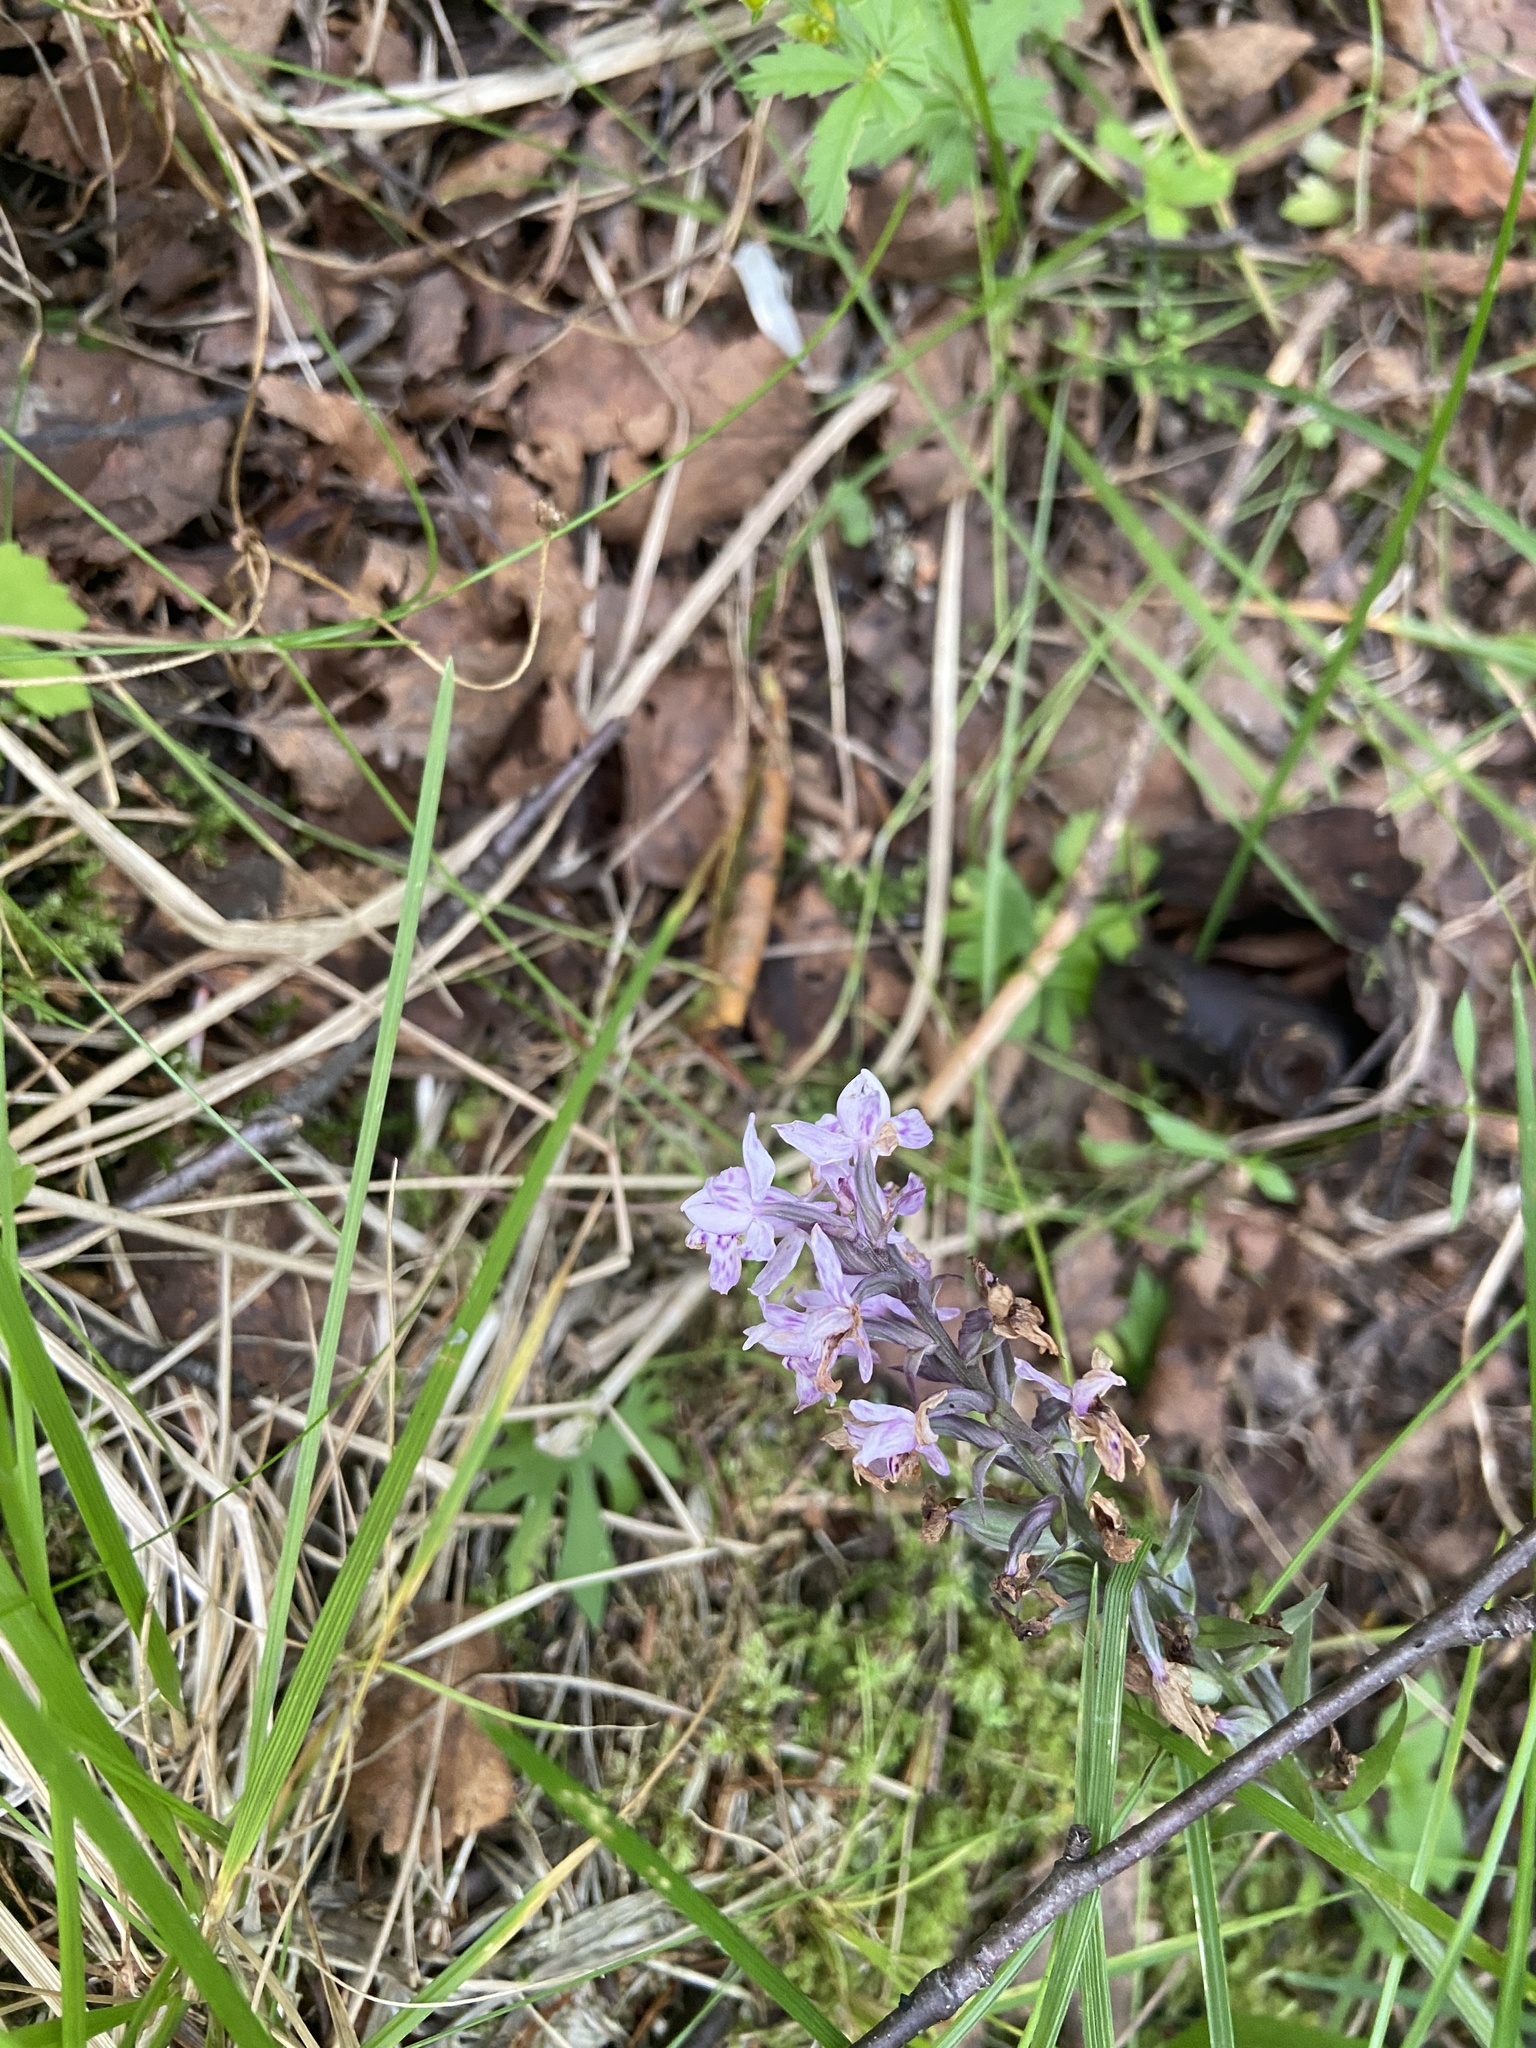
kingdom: Plantae
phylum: Tracheophyta
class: Liliopsida
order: Asparagales
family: Orchidaceae
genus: Dactylorhiza
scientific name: Dactylorhiza maculata
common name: Heath spotted-orchid
